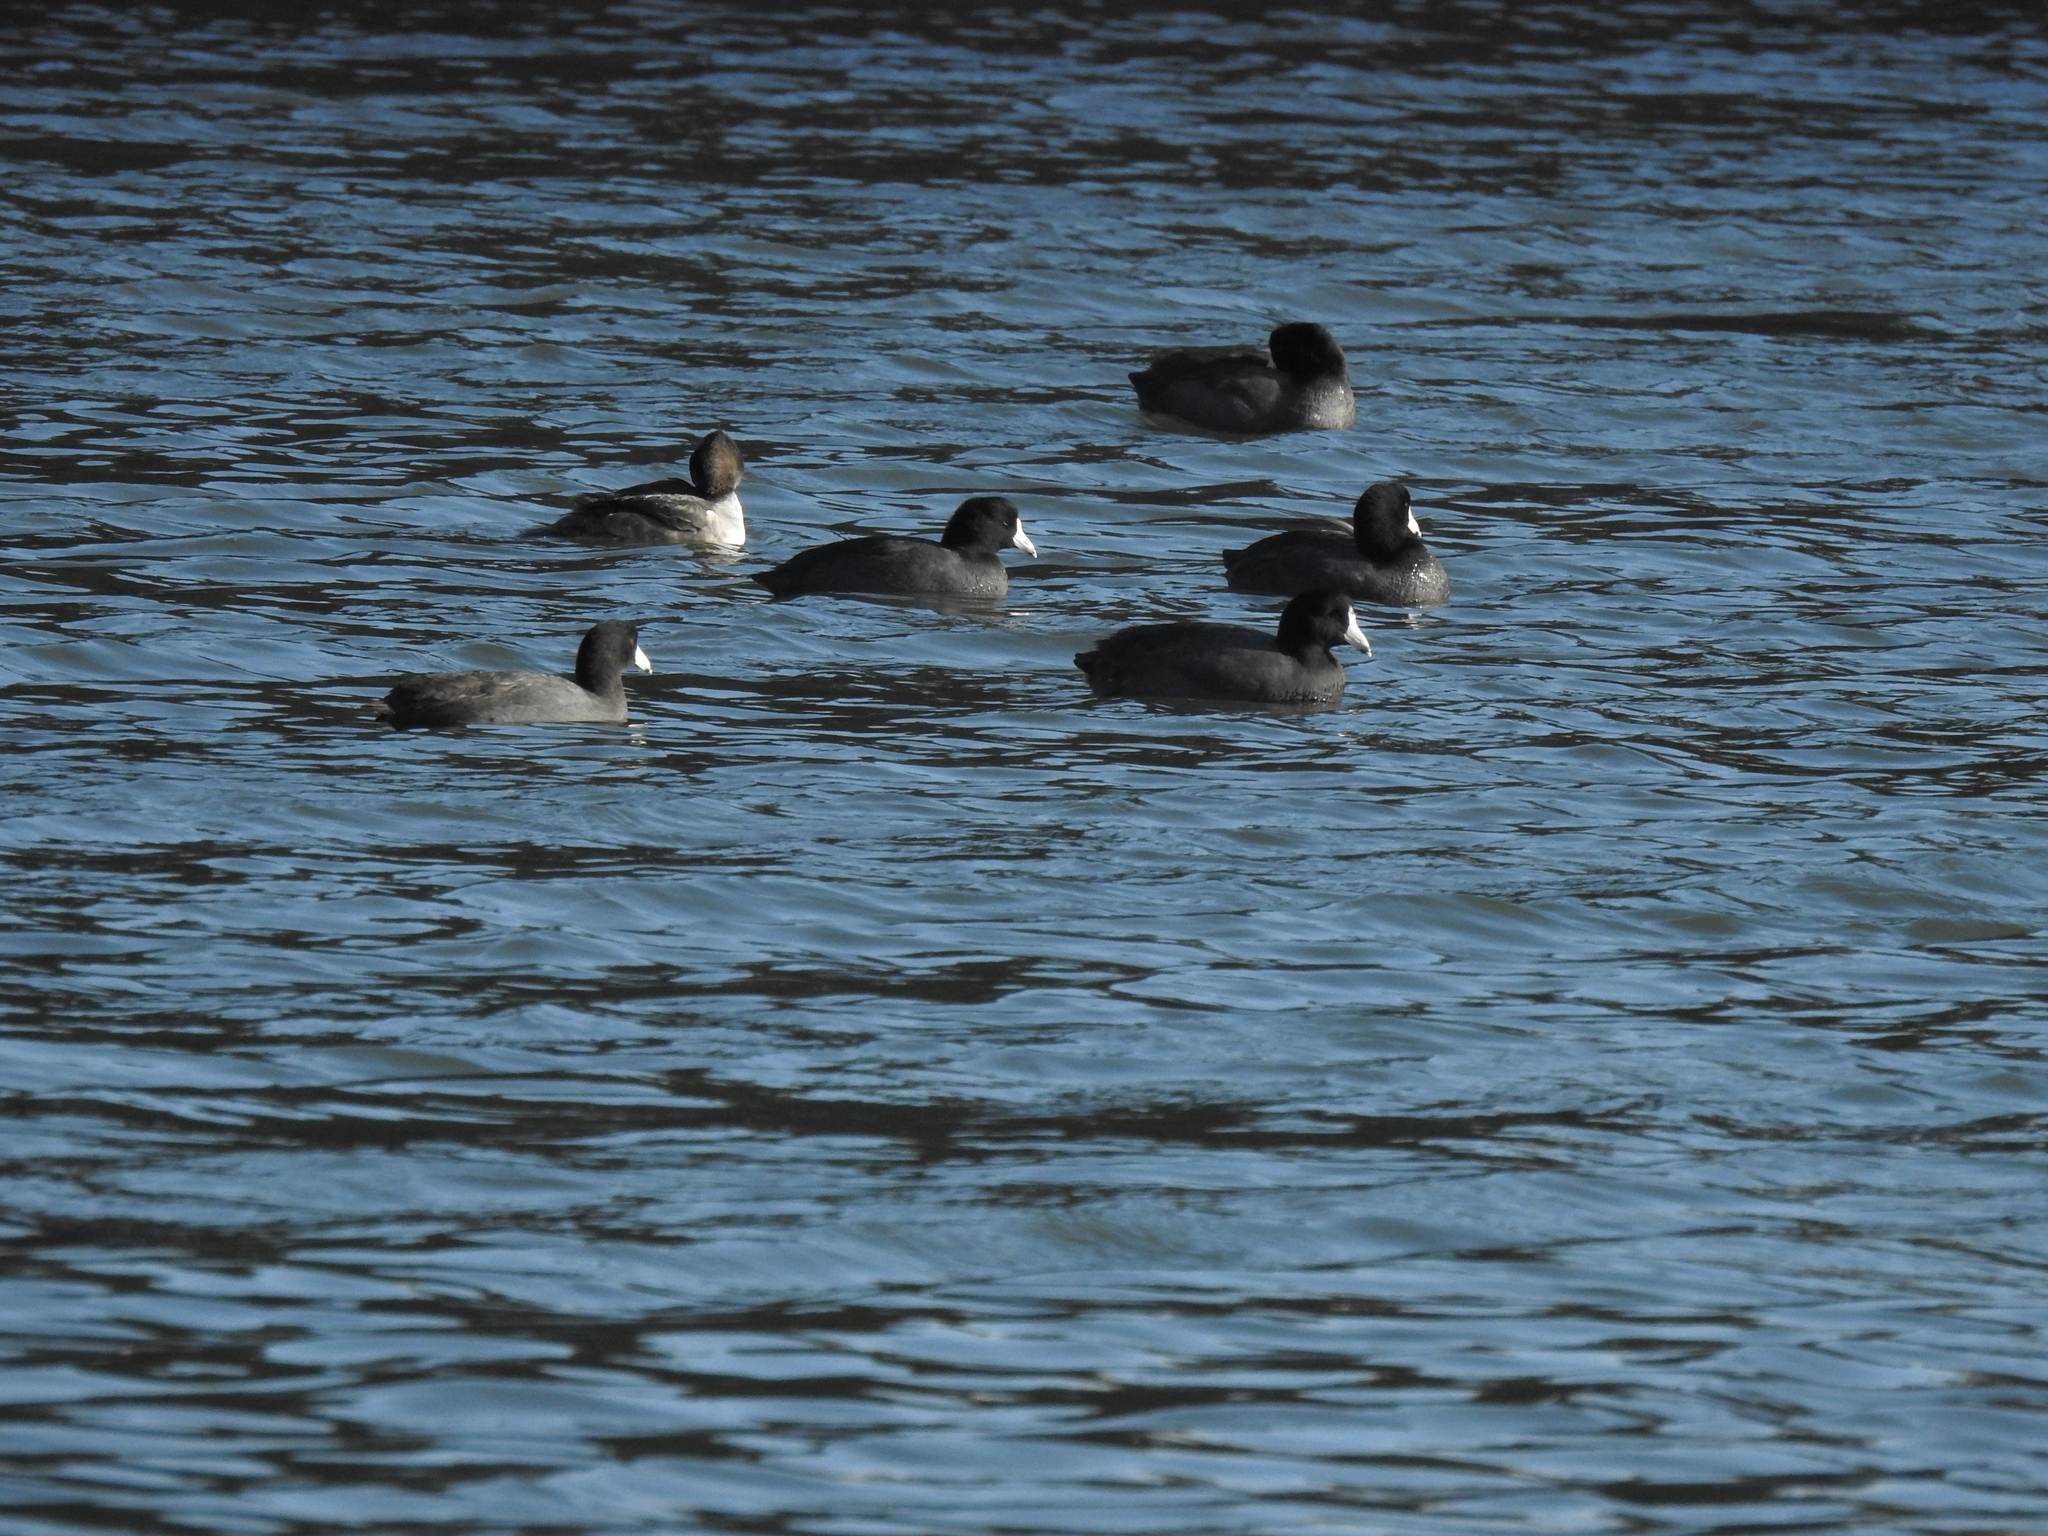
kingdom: Animalia
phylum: Chordata
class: Aves
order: Gruiformes
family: Rallidae
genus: Fulica
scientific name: Fulica americana
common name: American coot
